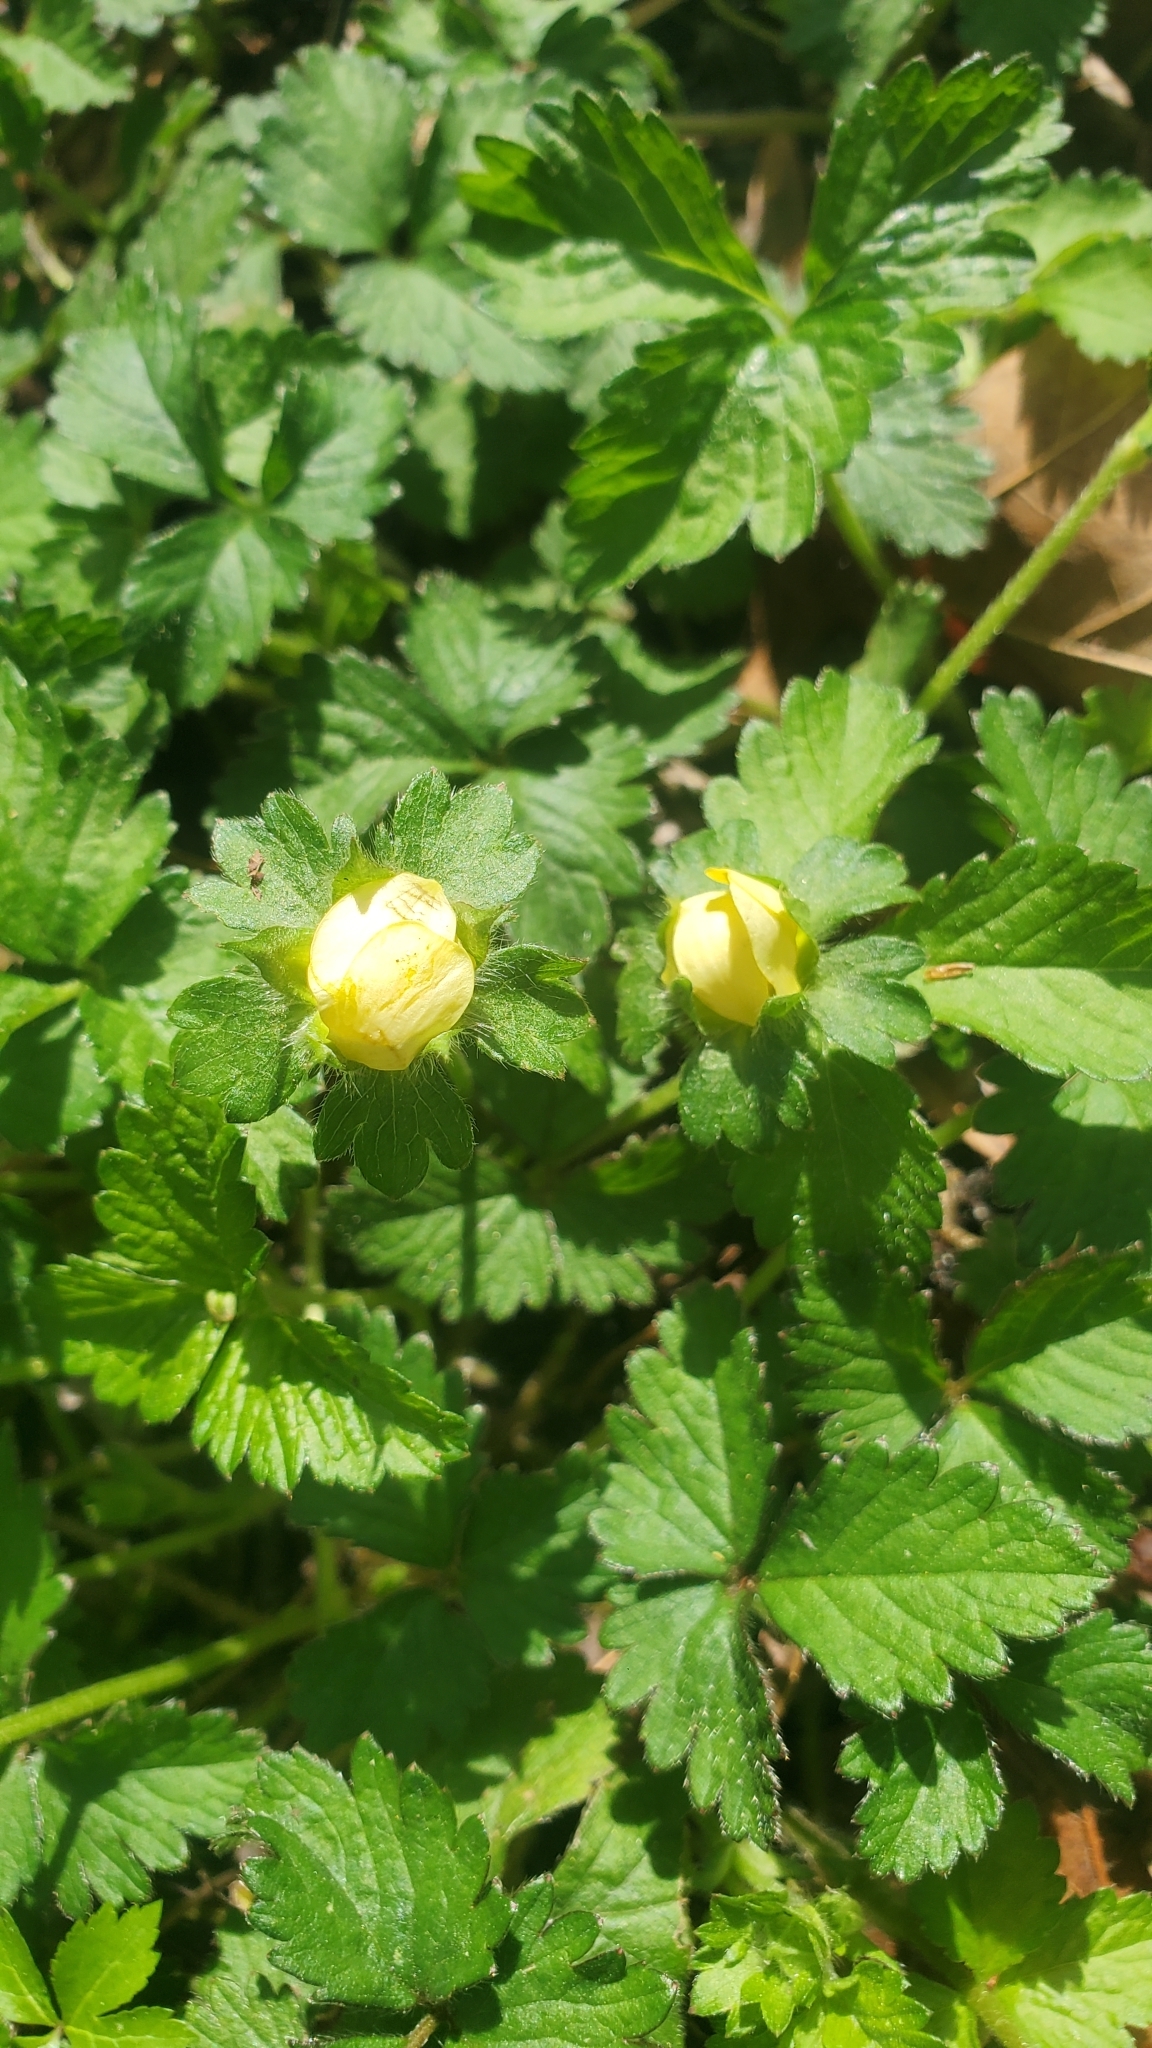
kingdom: Plantae
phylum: Tracheophyta
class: Magnoliopsida
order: Rosales
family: Rosaceae
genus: Potentilla
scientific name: Potentilla indica
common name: Yellow-flowered strawberry
